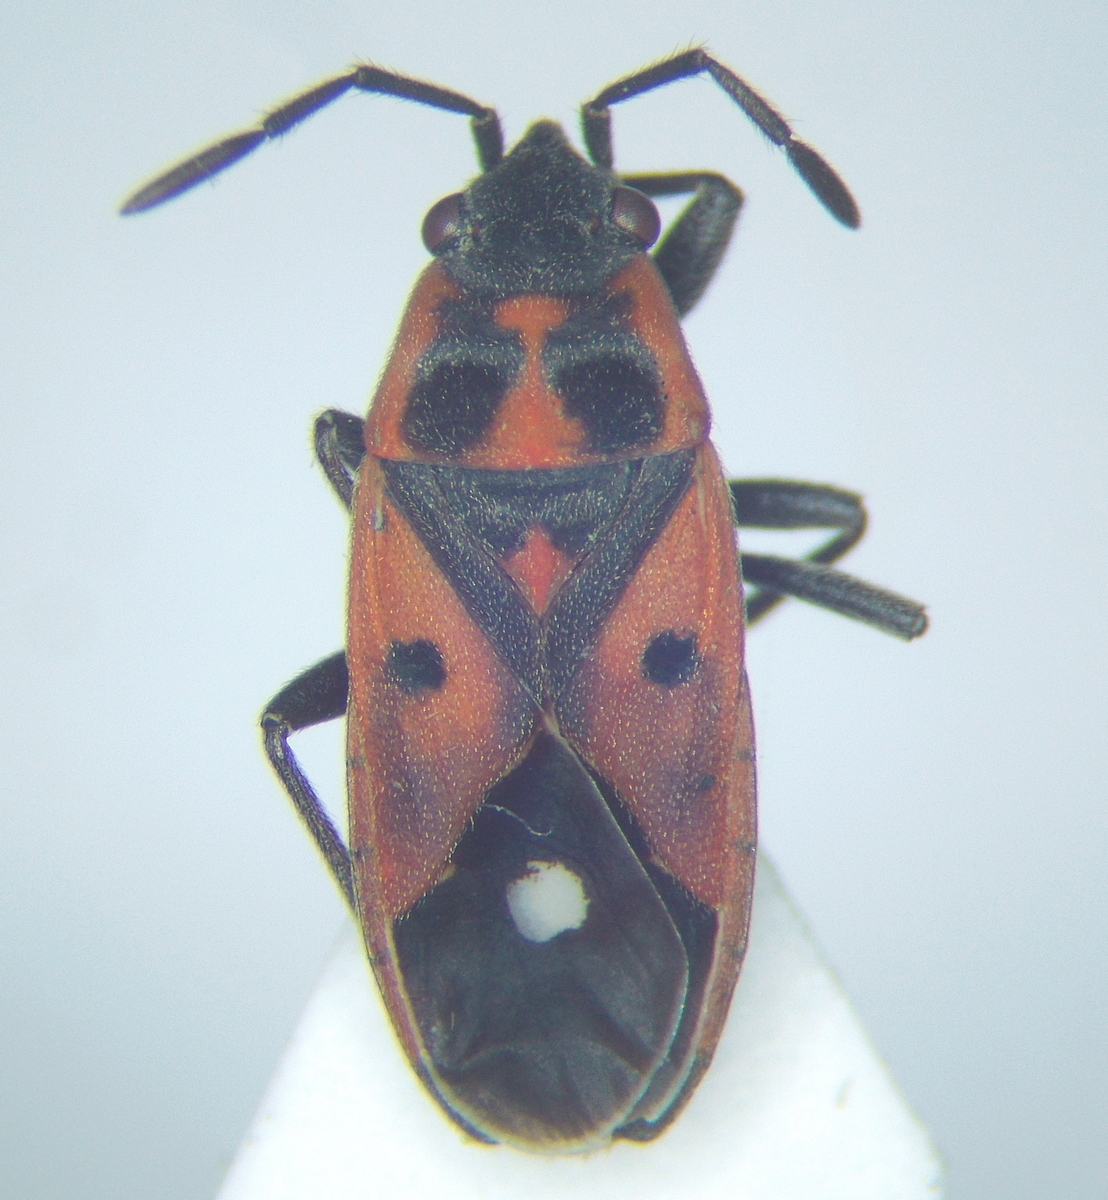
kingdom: Animalia
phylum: Arthropoda
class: Insecta
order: Hemiptera
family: Lygaeidae
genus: Melanocoryphus
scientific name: Melanocoryphus tristrami
